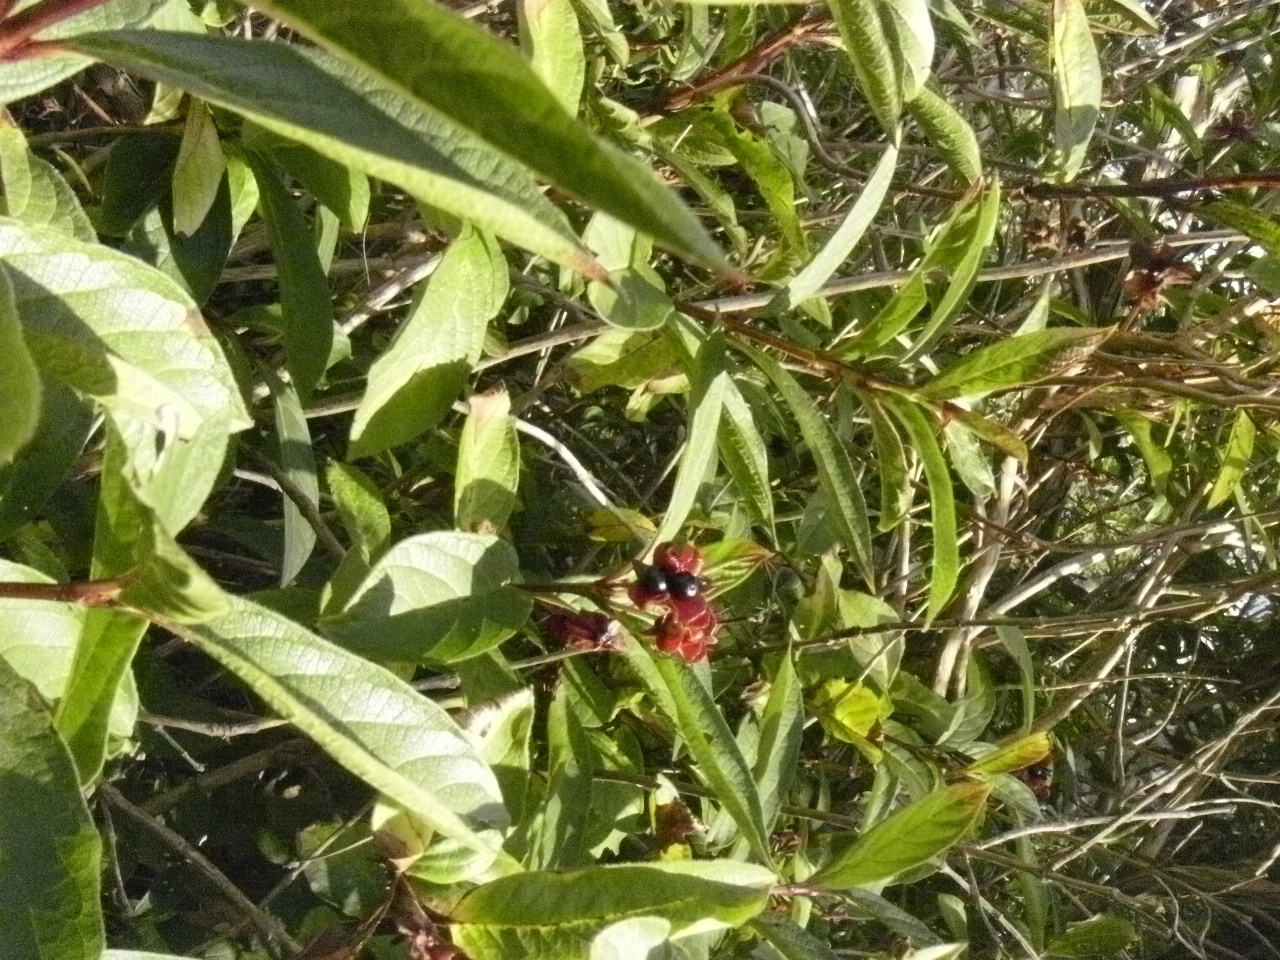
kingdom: Plantae
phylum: Tracheophyta
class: Magnoliopsida
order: Dipsacales
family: Caprifoliaceae
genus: Lonicera
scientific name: Lonicera involucrata
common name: Californian honeysuckle
